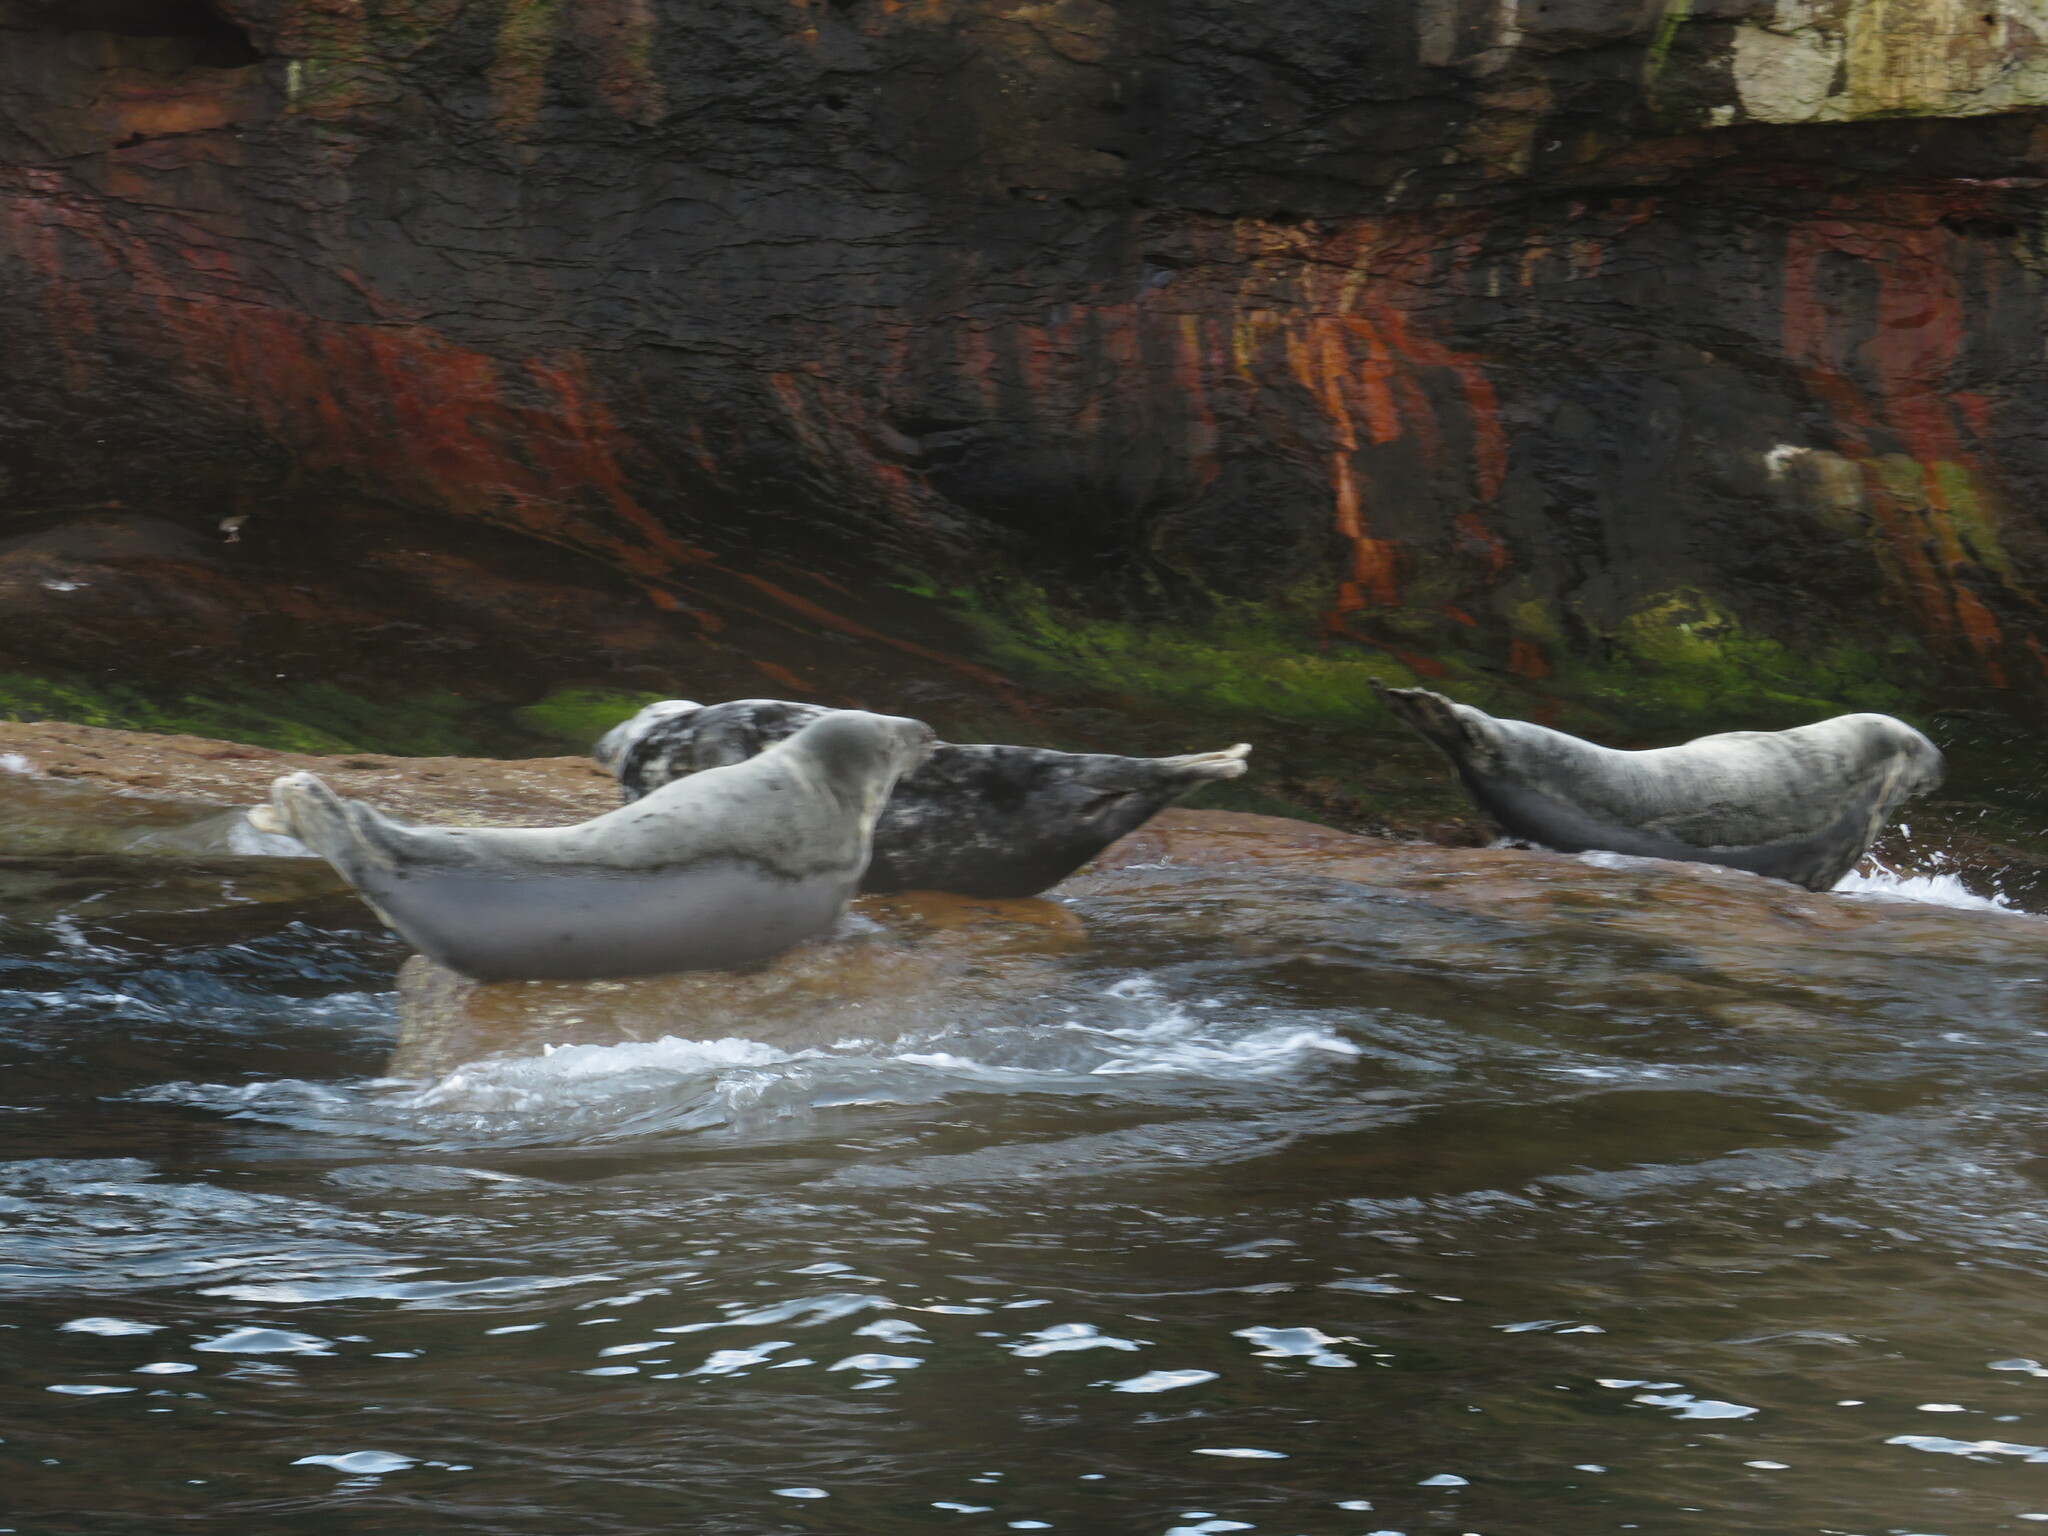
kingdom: Animalia
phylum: Chordata
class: Mammalia
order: Carnivora
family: Phocidae
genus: Halichoerus
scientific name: Halichoerus grypus
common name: Grey seal
